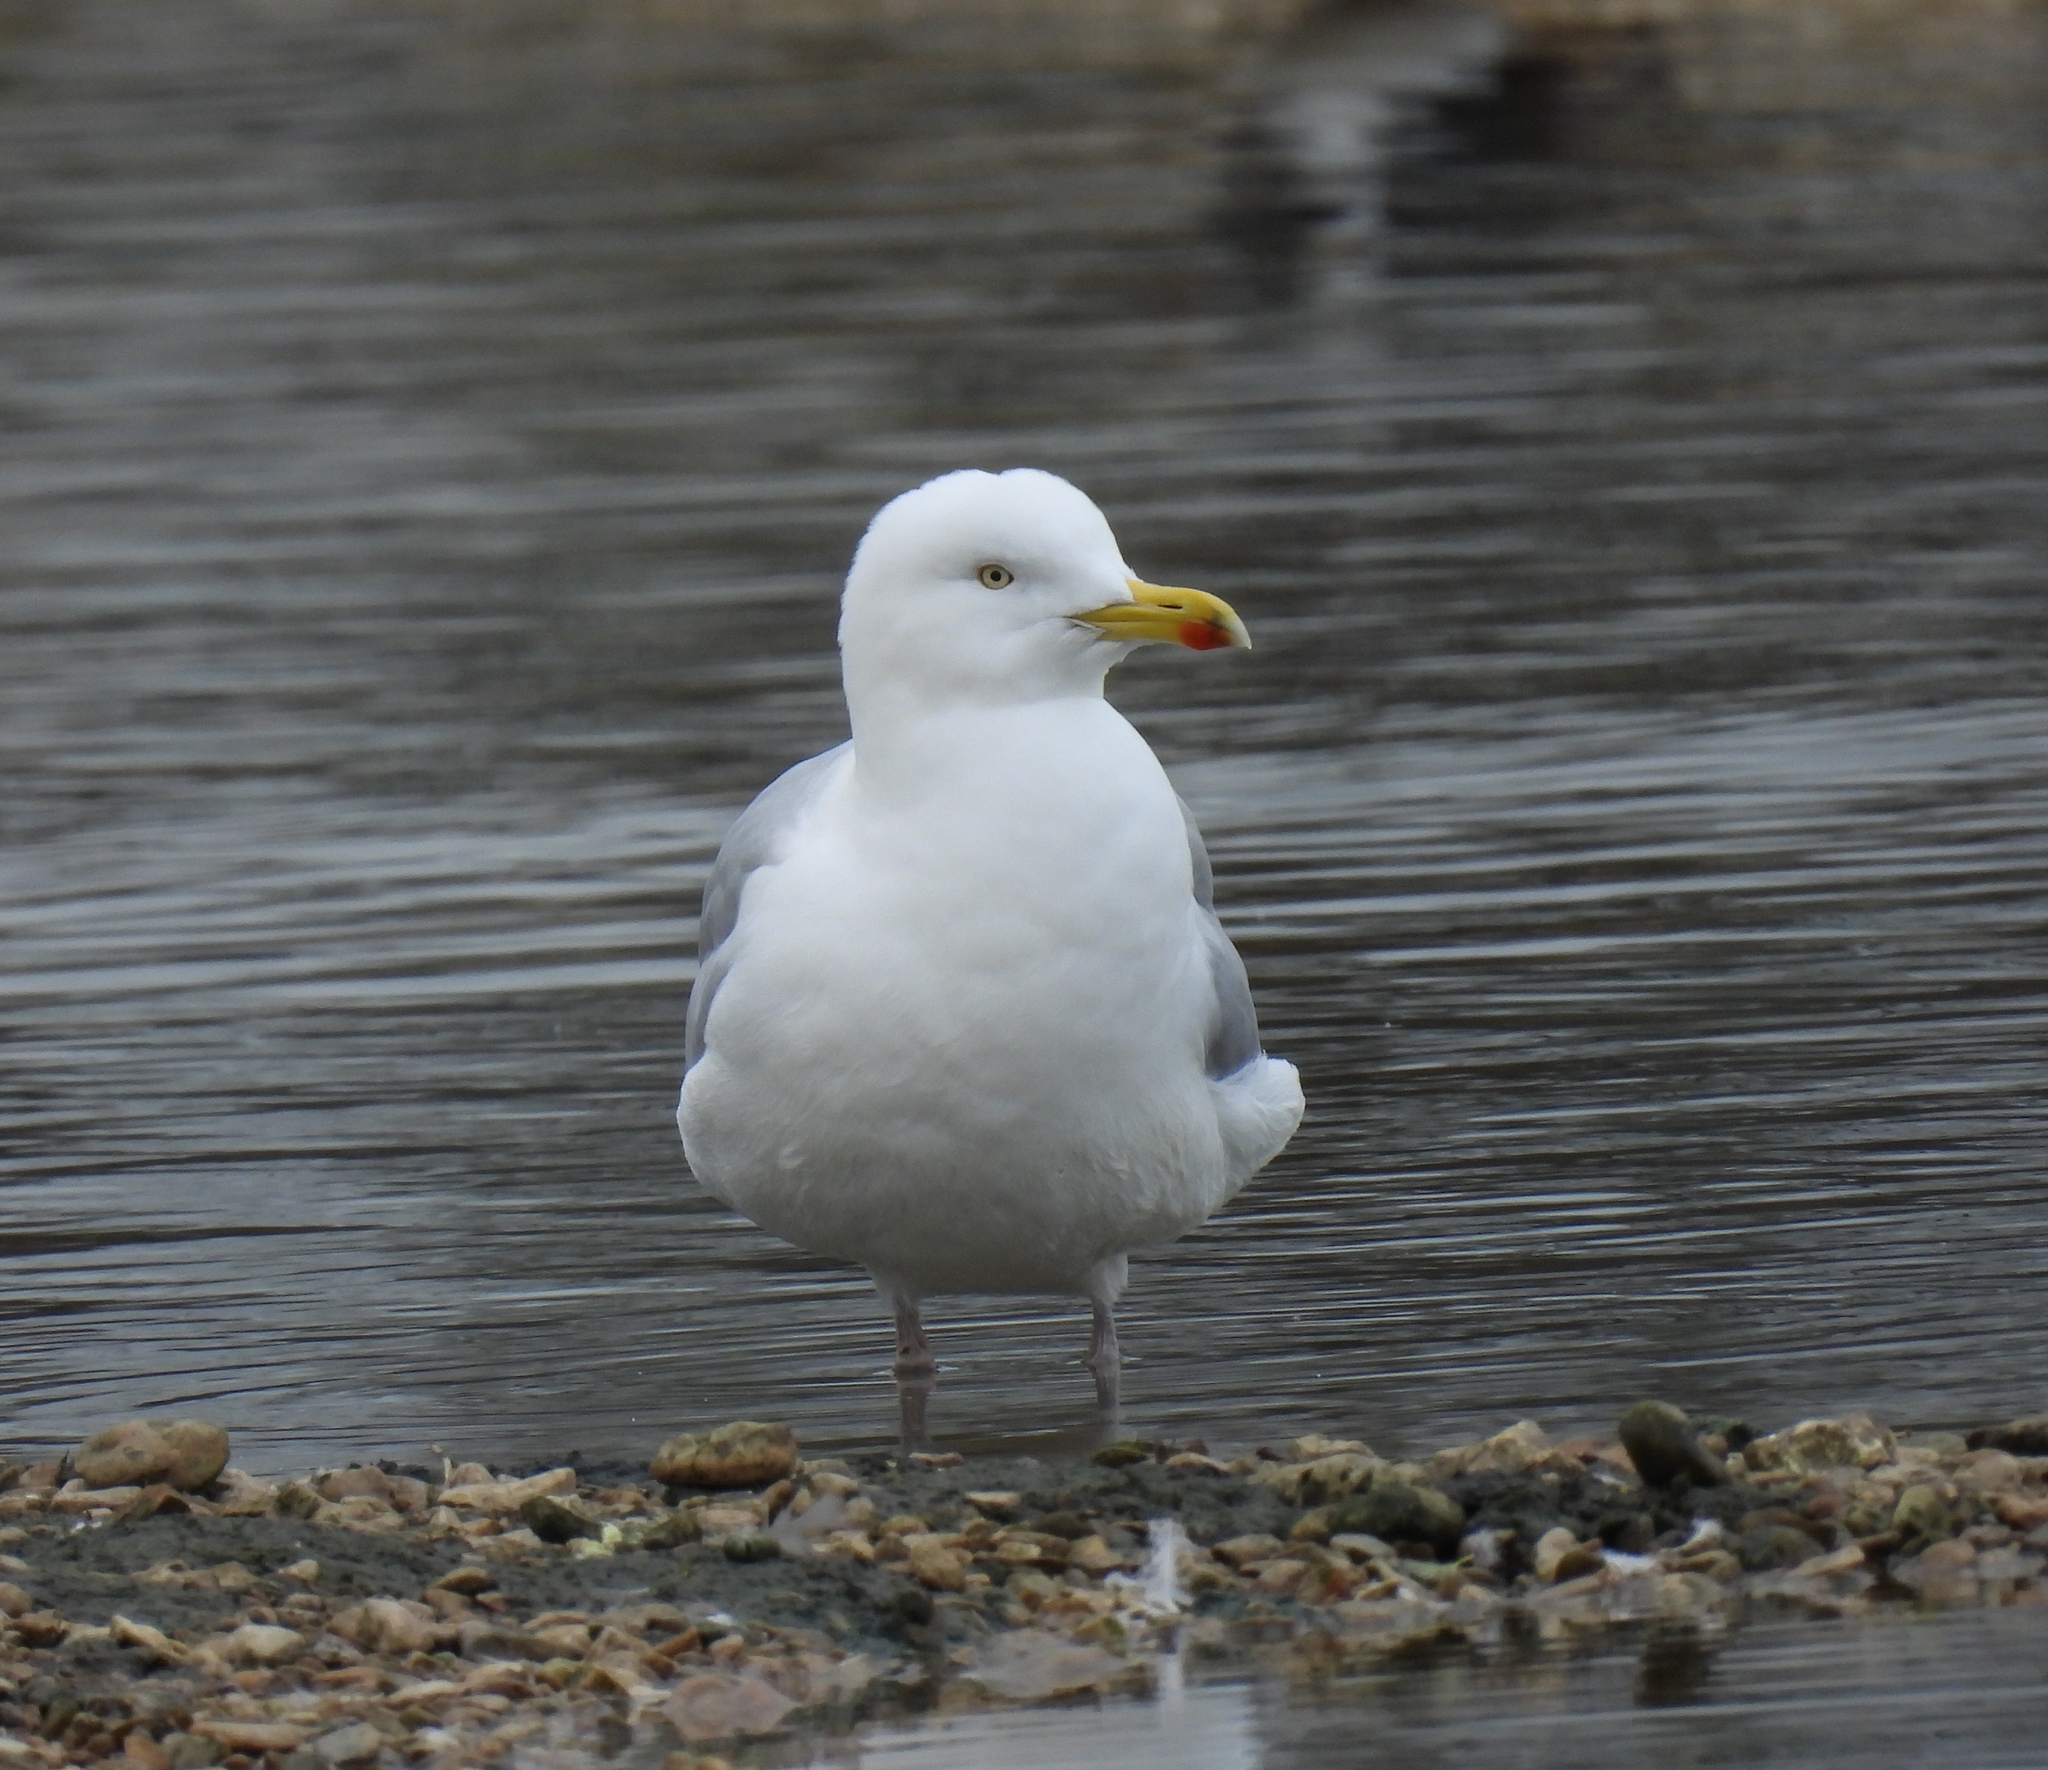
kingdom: Animalia
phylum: Chordata
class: Aves
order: Charadriiformes
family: Laridae
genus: Larus
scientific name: Larus argentatus
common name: Herring gull
